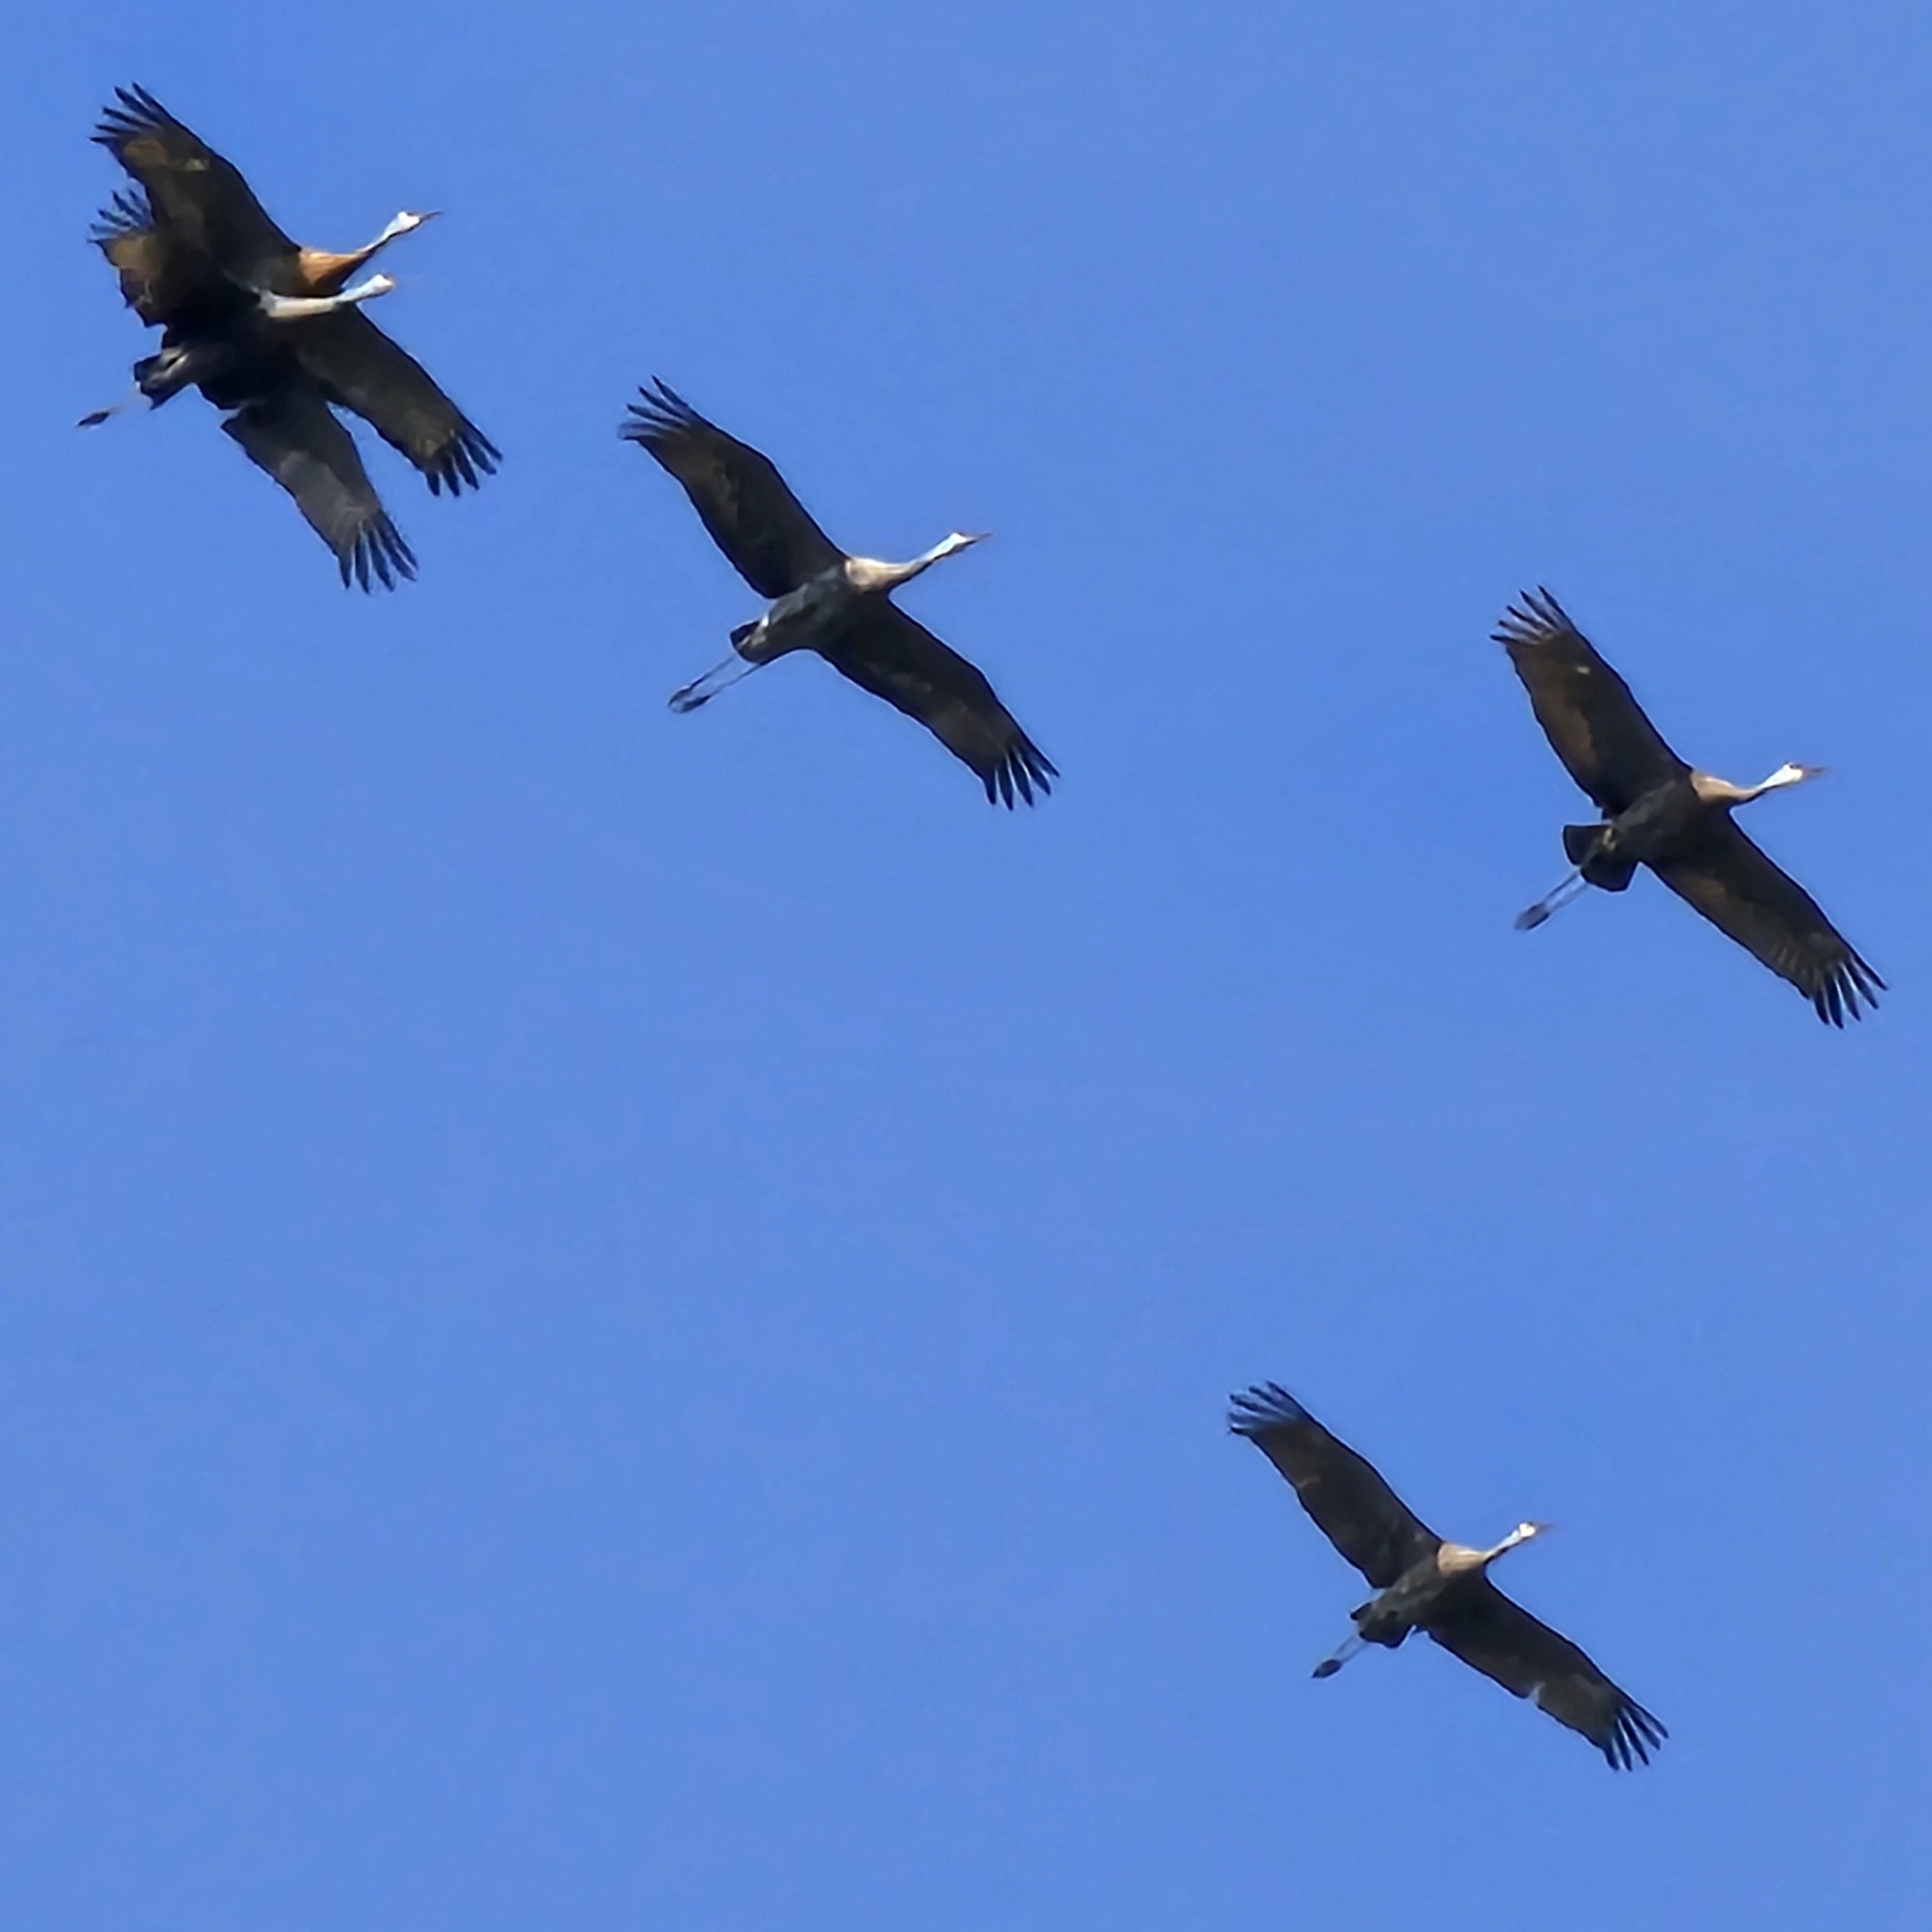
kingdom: Animalia
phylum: Chordata
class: Aves
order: Gruiformes
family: Gruidae
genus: Grus
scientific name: Grus canadensis
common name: Sandhill crane
